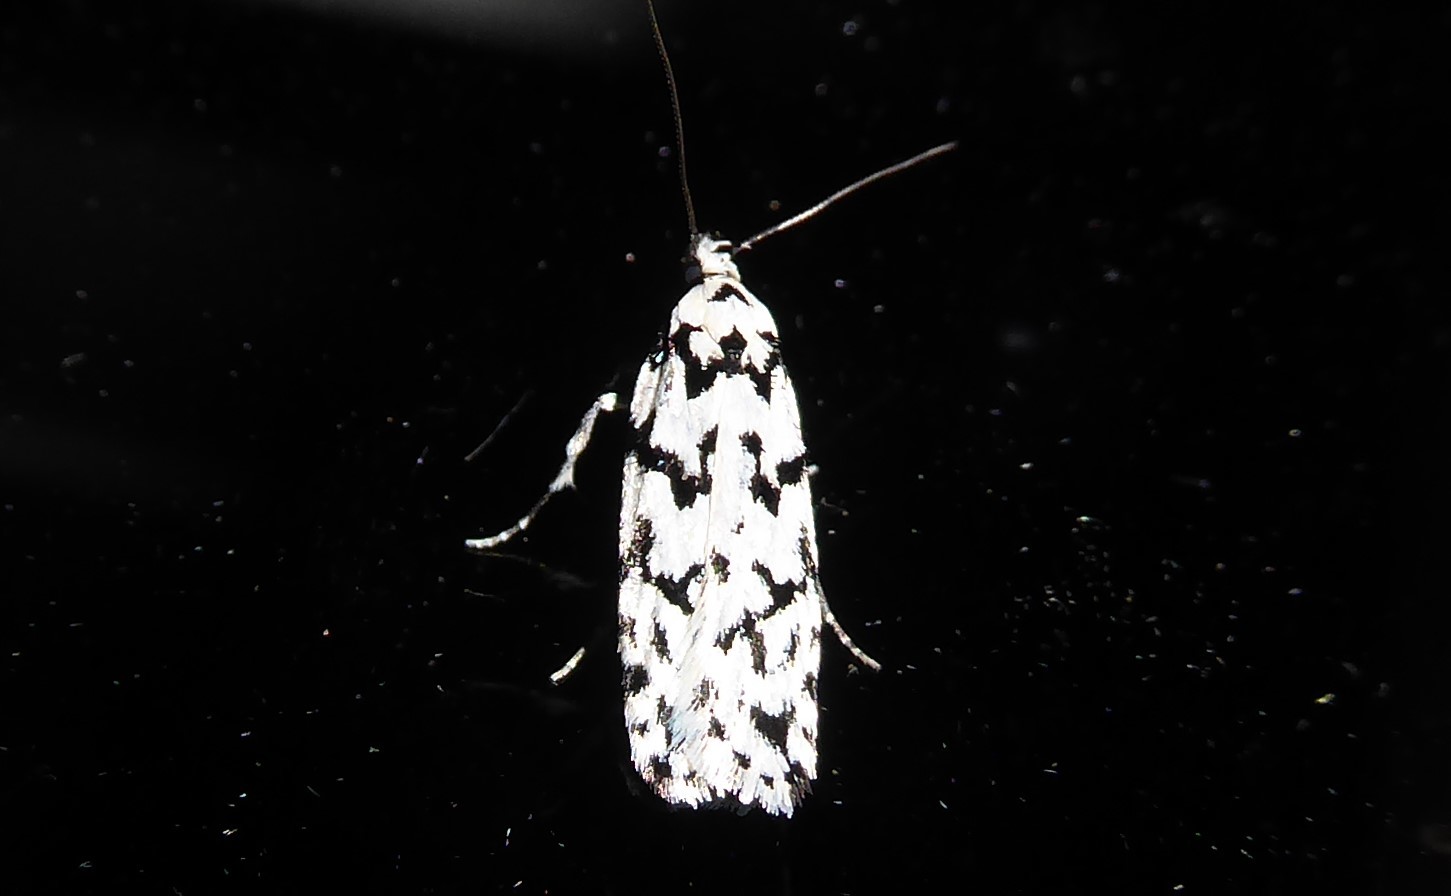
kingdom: Animalia
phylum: Arthropoda
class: Insecta
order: Lepidoptera
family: Oecophoridae
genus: Izatha
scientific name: Izatha katadiktya
